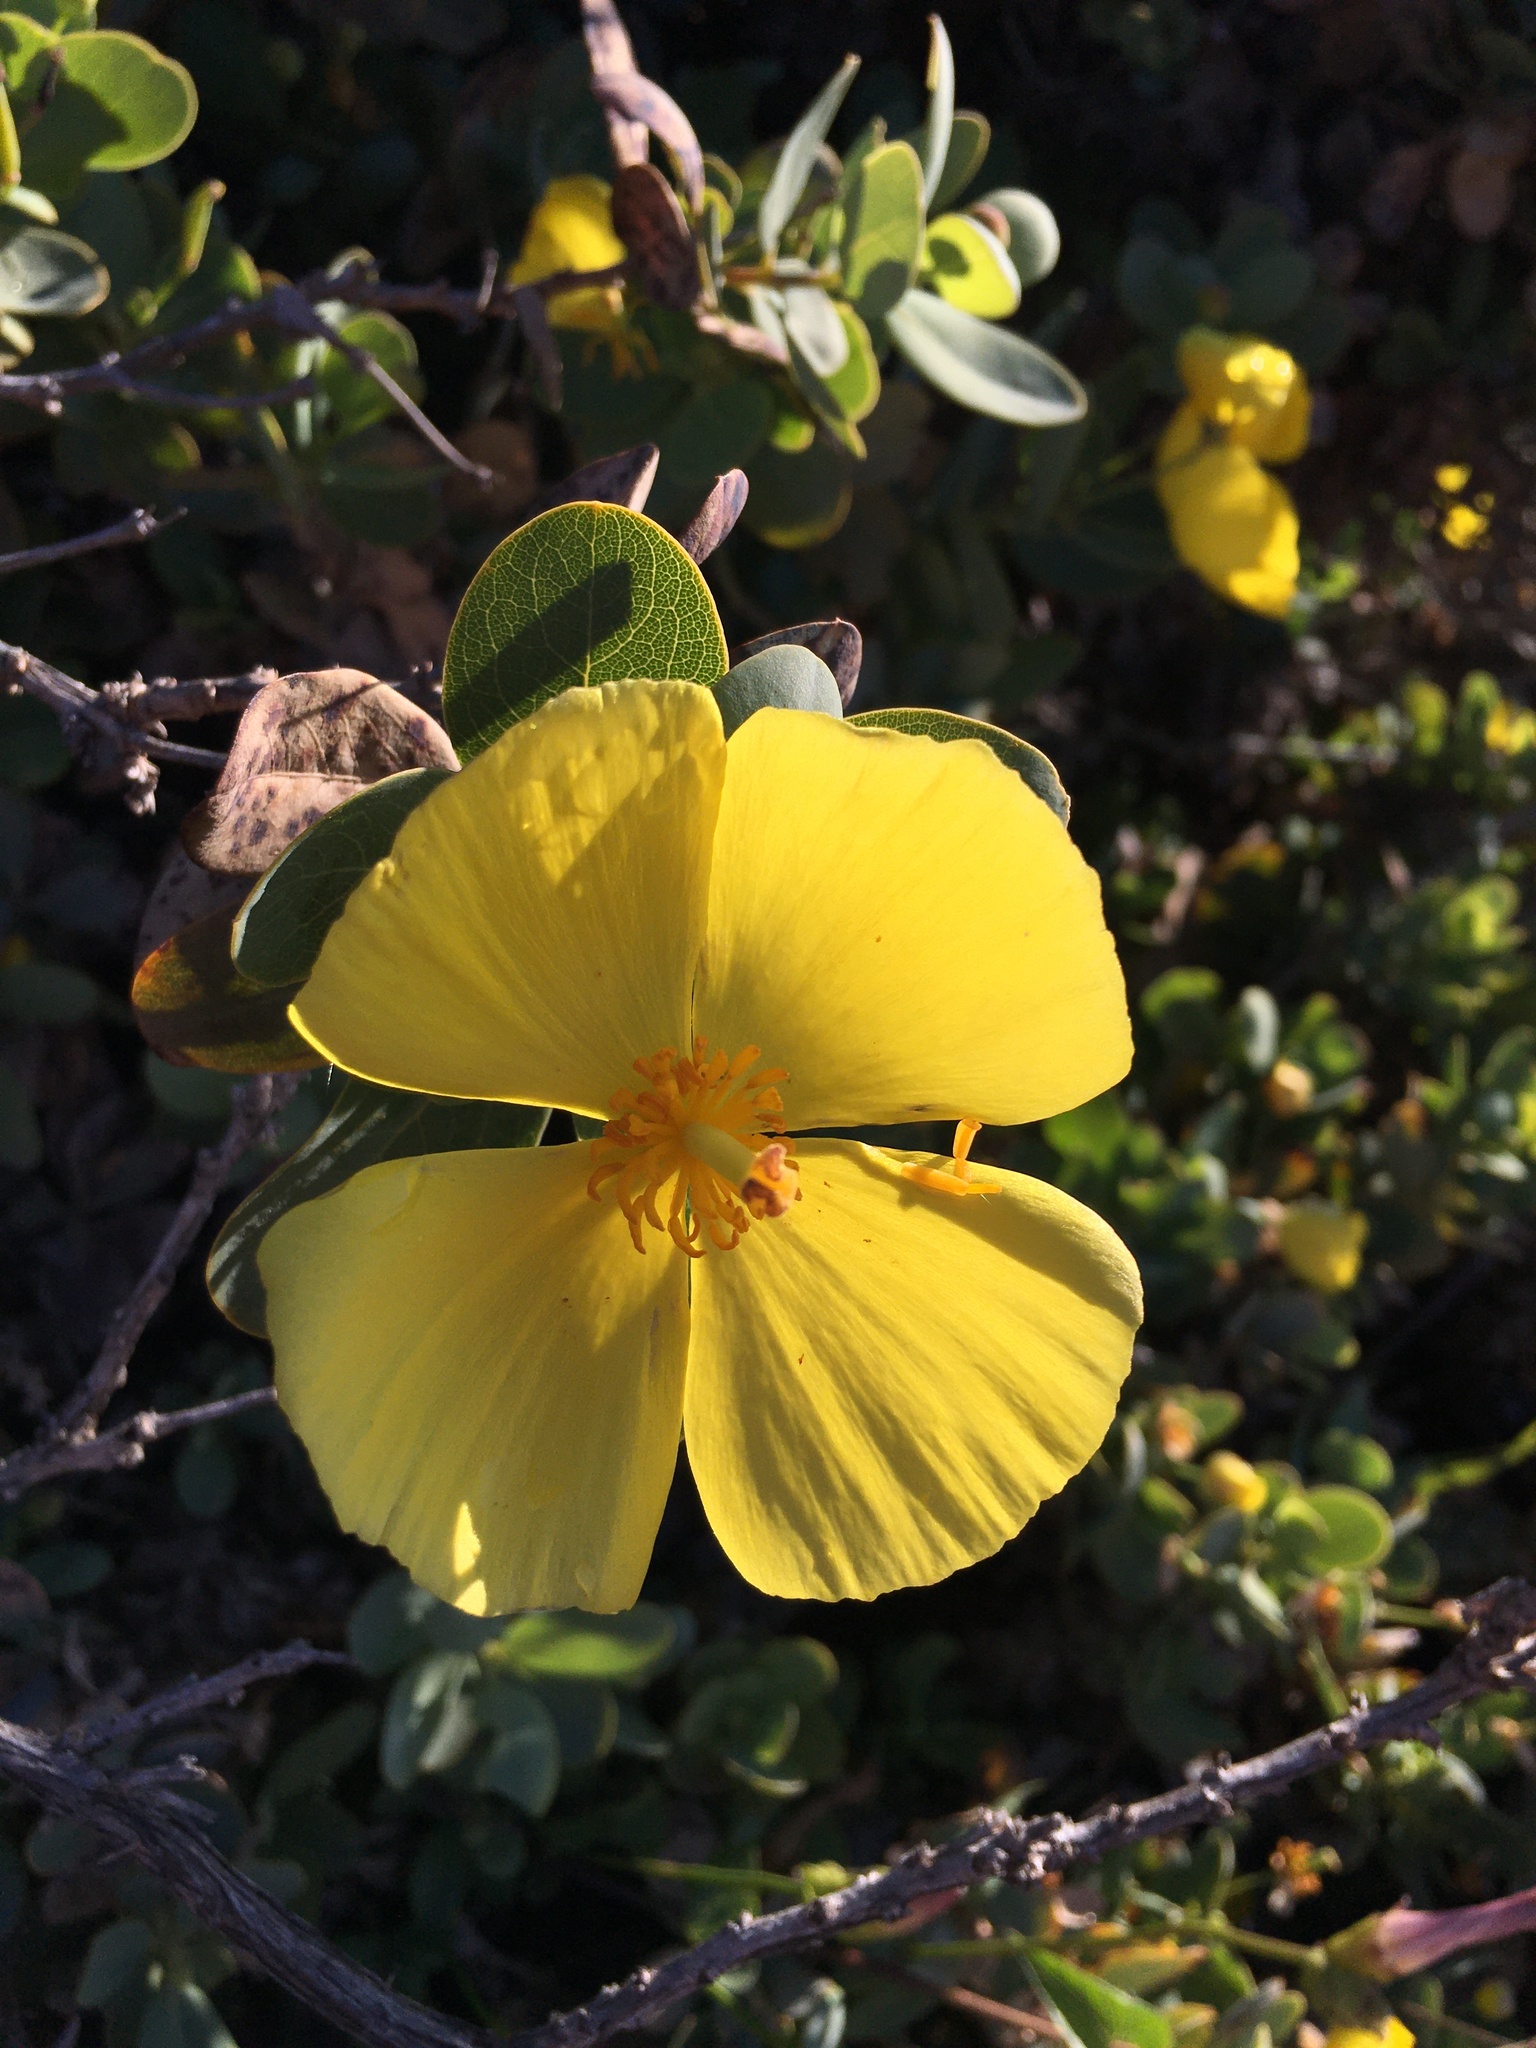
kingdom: Plantae
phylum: Tracheophyta
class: Magnoliopsida
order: Ranunculales
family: Papaveraceae
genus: Dendromecon
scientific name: Dendromecon harfordii
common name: Island tree-poppy
